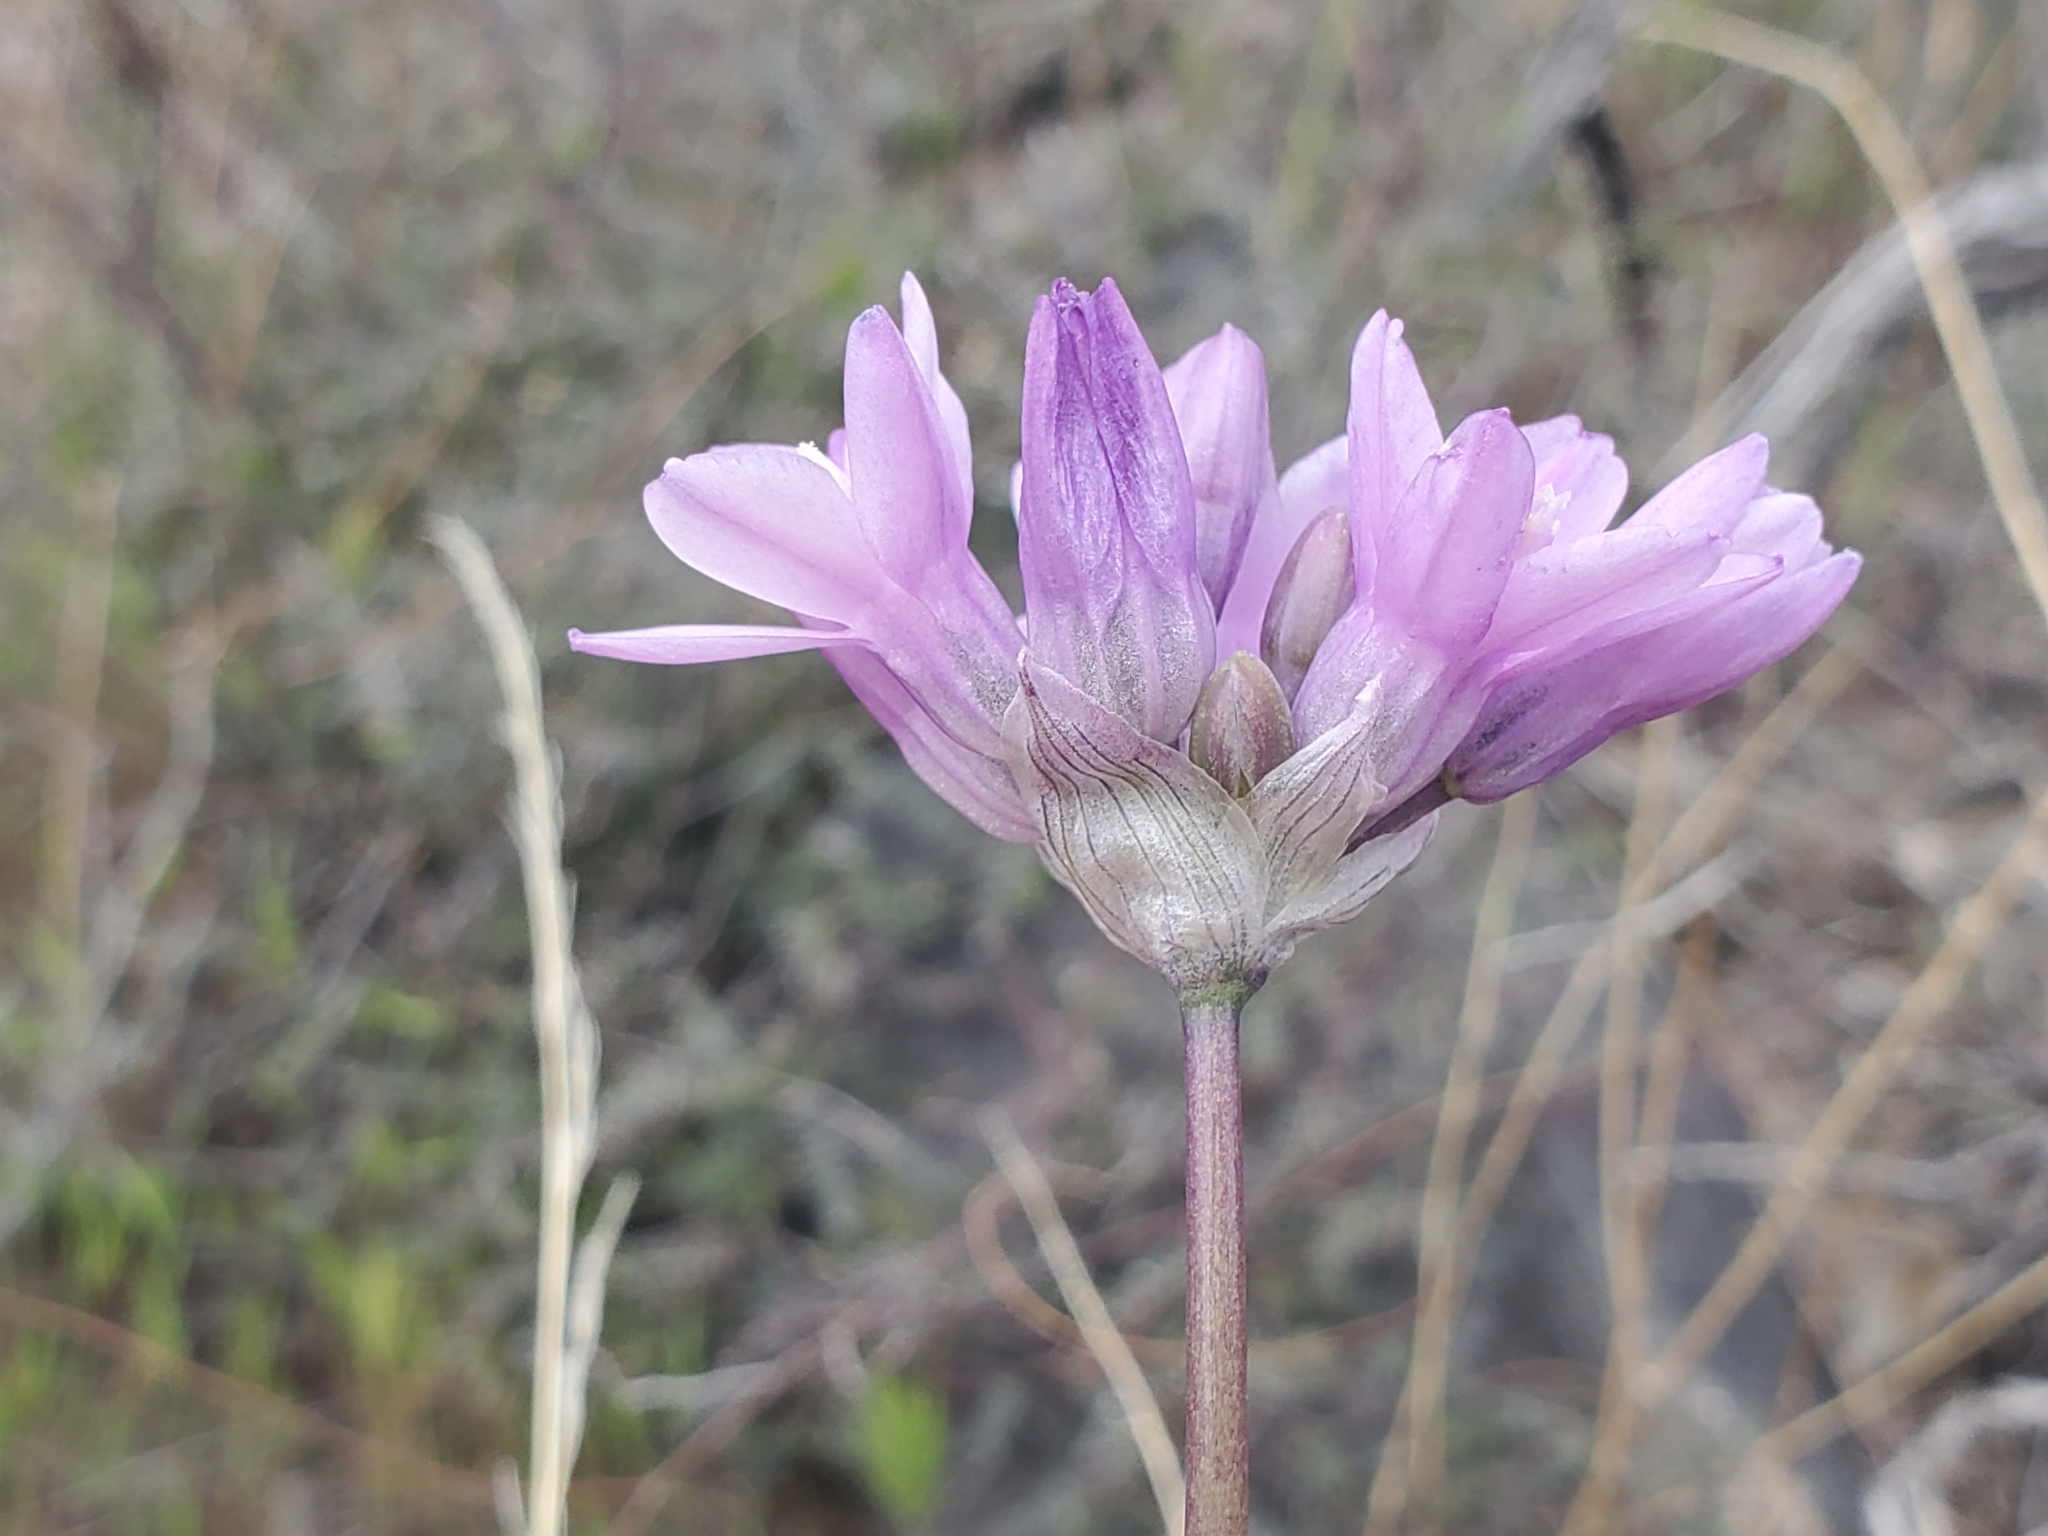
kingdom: Plantae
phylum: Tracheophyta
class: Liliopsida
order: Asparagales
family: Asparagaceae
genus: Dipterostemon
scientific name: Dipterostemon capitatus
